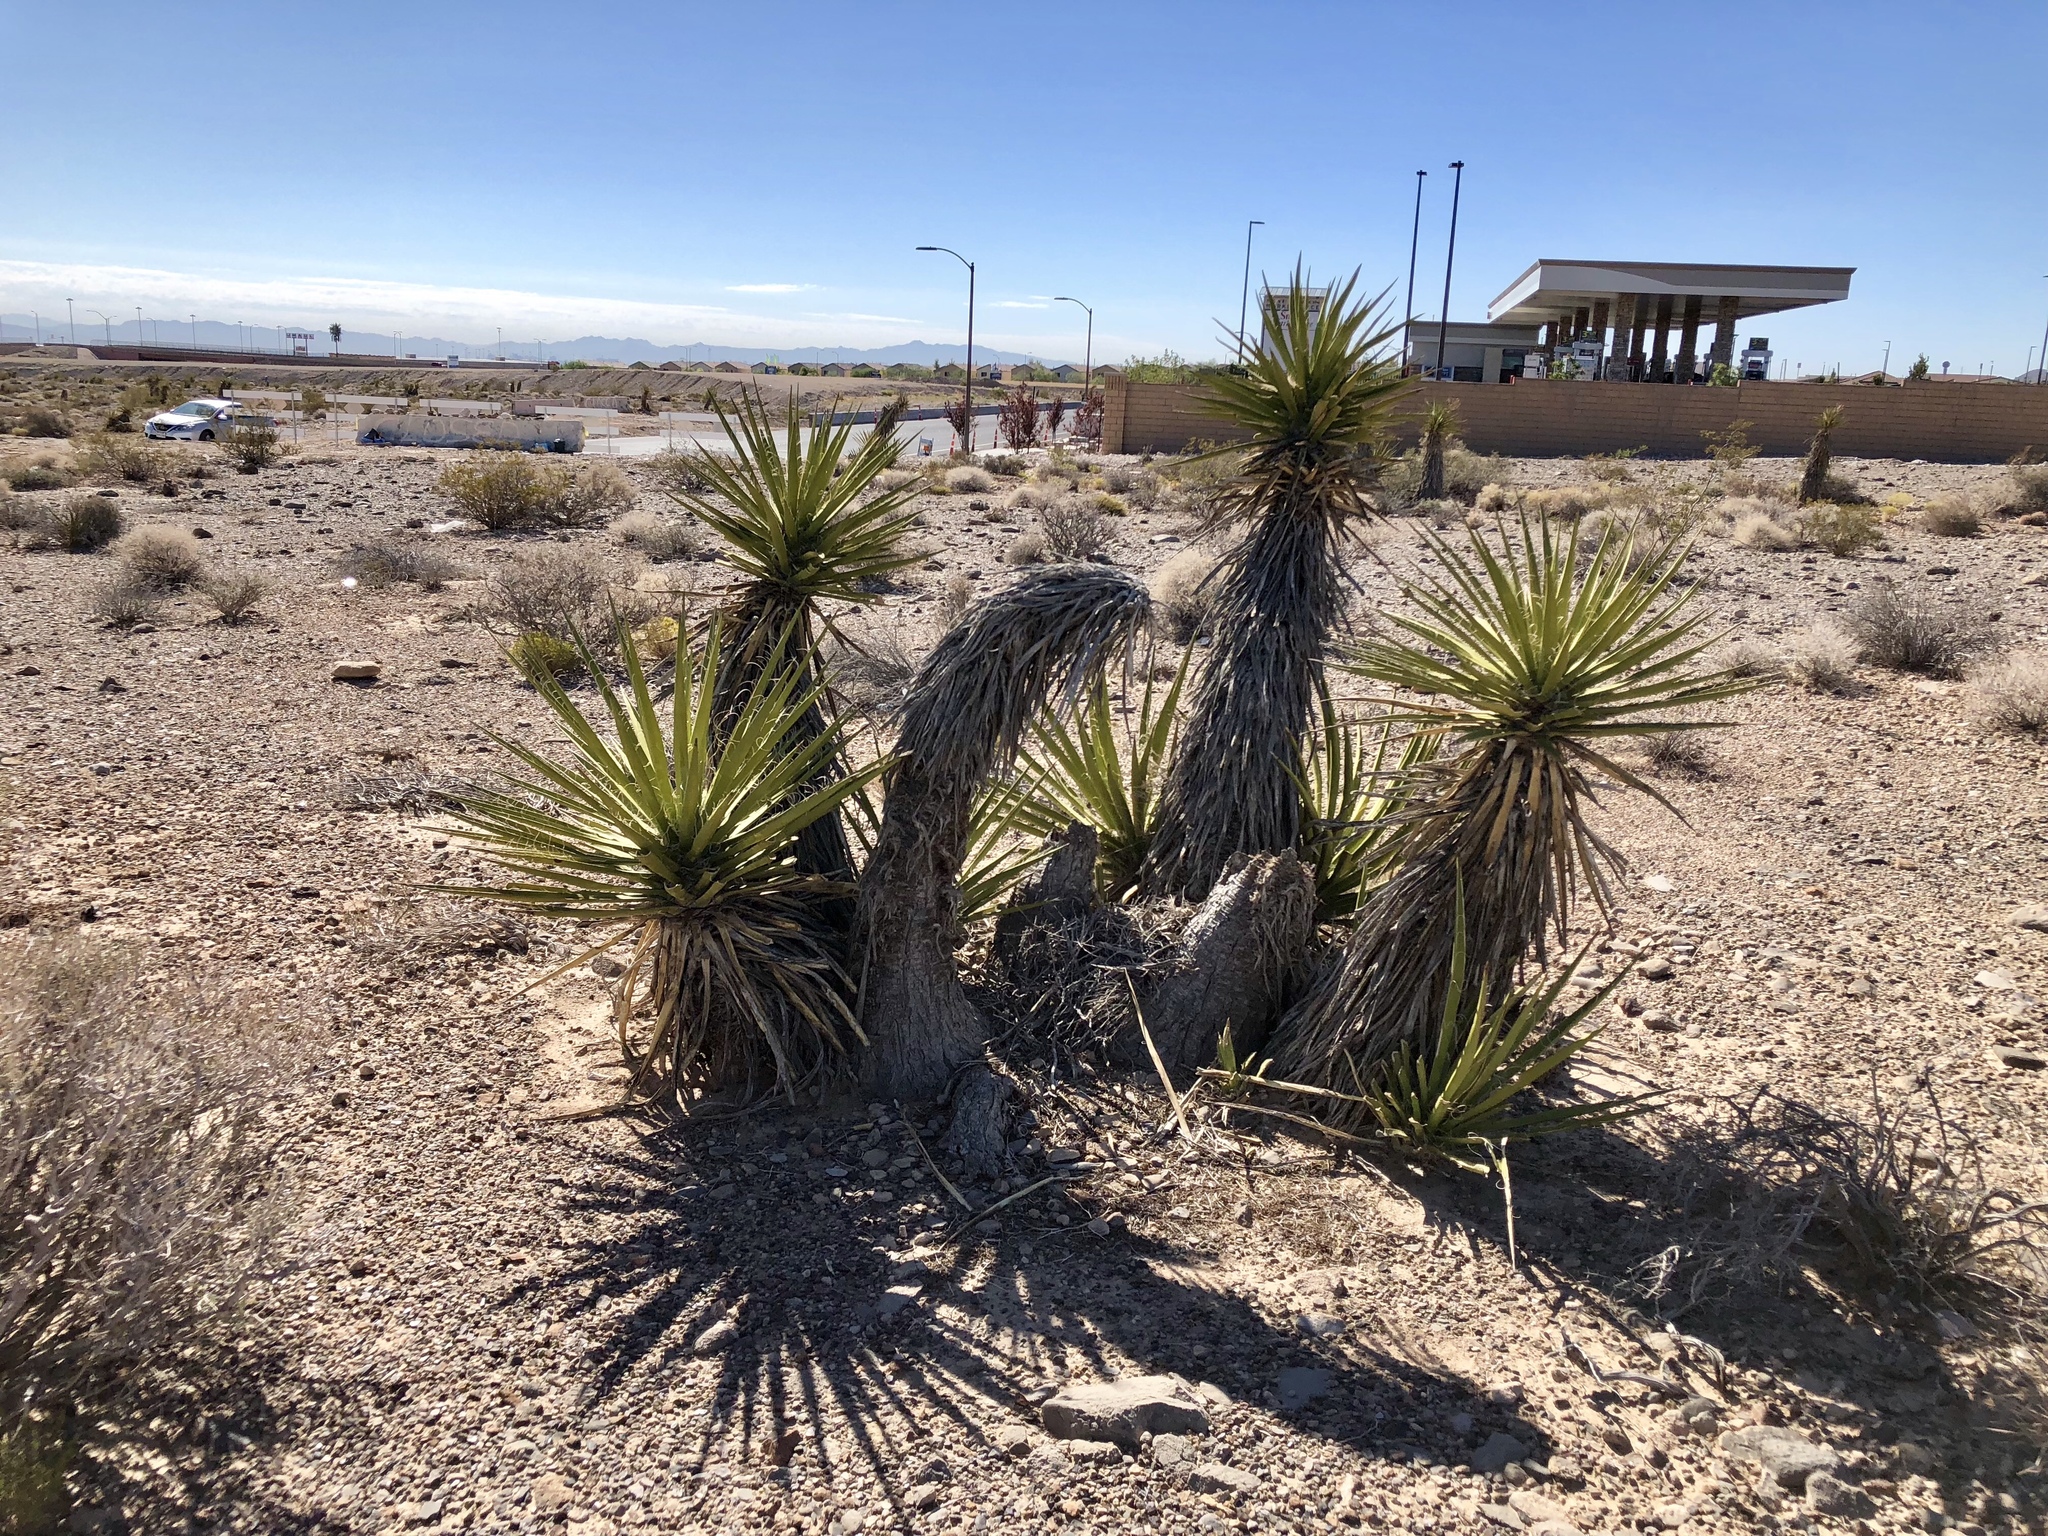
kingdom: Plantae
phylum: Tracheophyta
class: Liliopsida
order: Asparagales
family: Asparagaceae
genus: Yucca
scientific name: Yucca schidigera
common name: Mojave yucca
